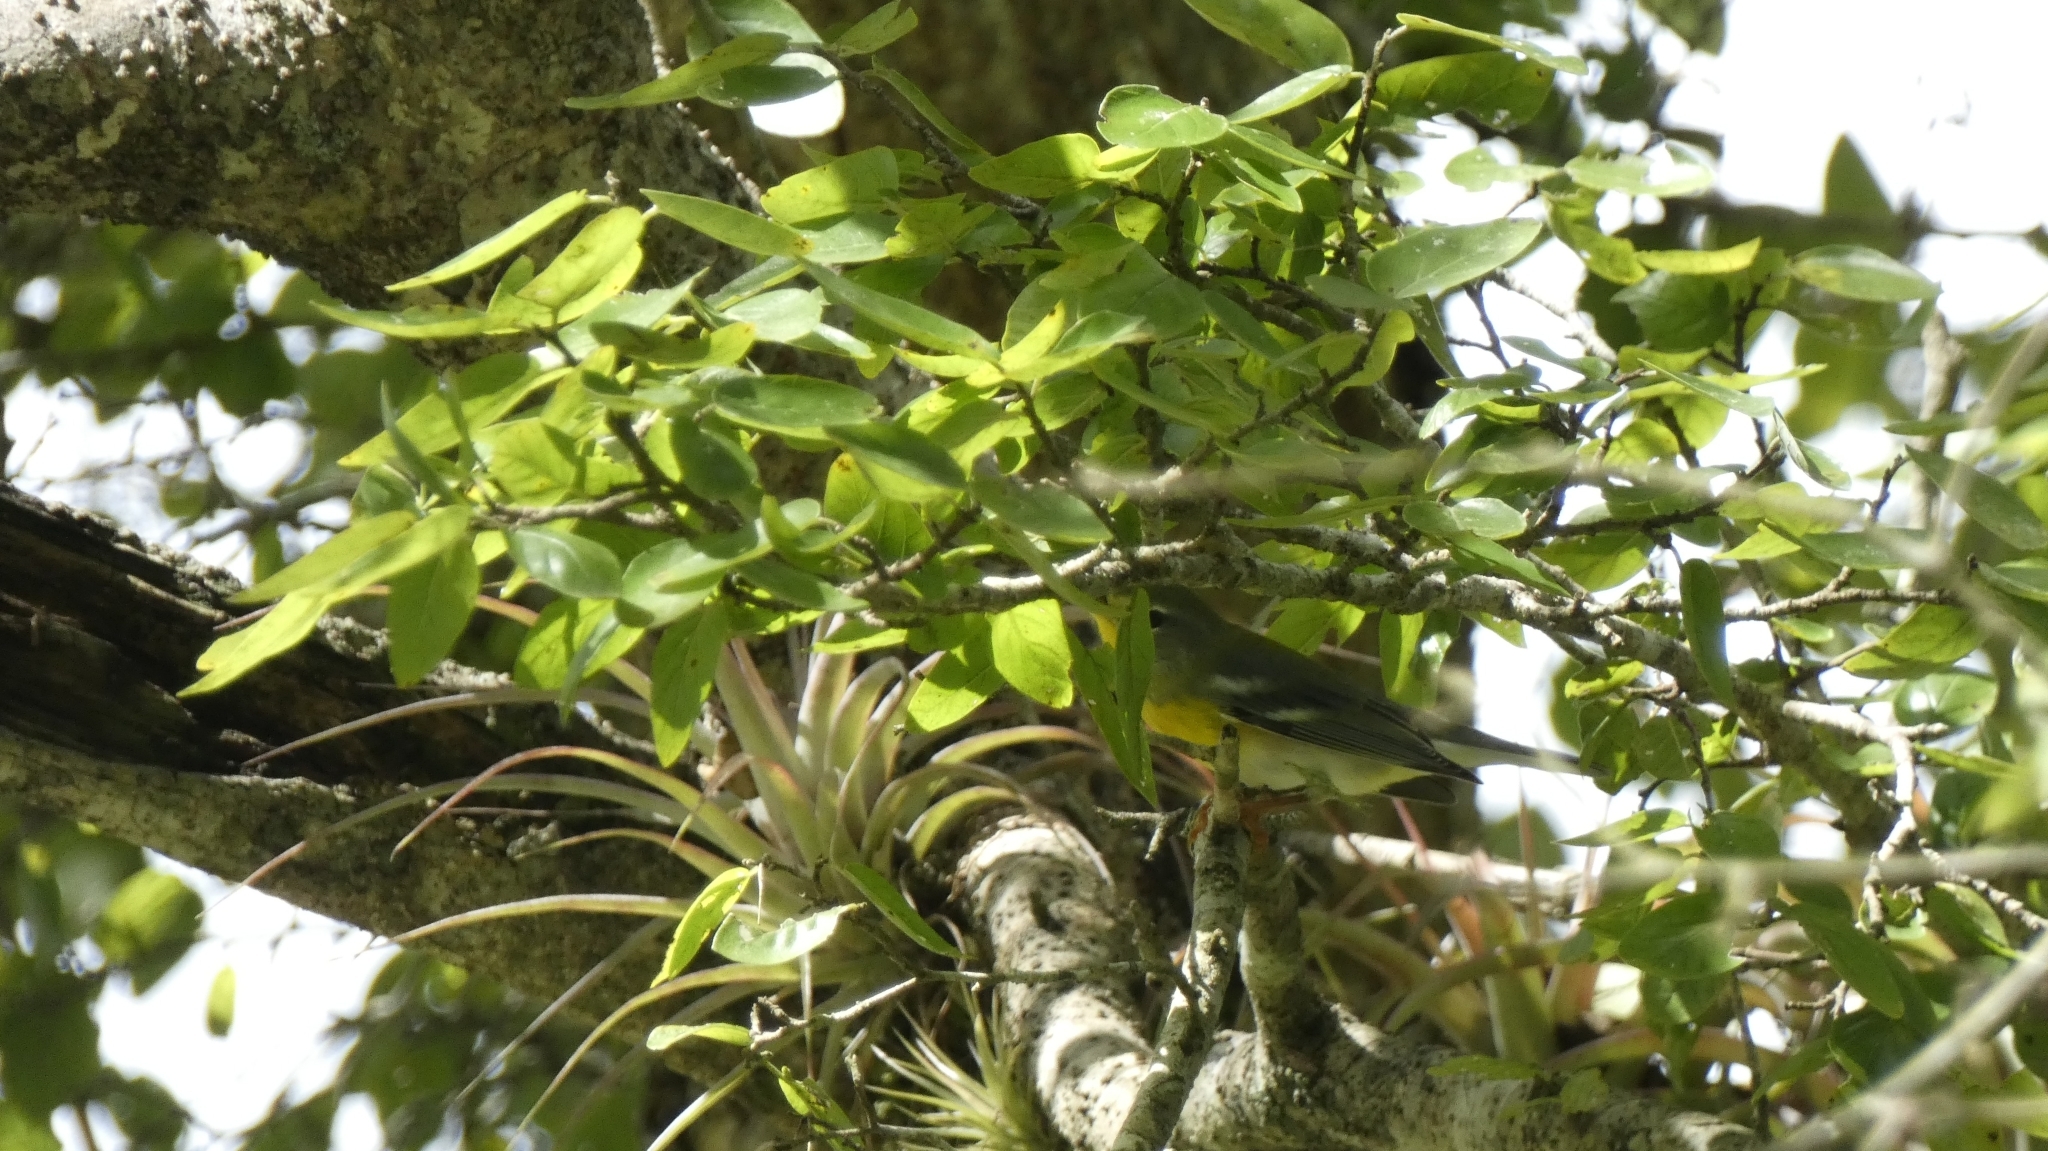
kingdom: Animalia
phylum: Chordata
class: Aves
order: Passeriformes
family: Parulidae
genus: Setophaga
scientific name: Setophaga americana
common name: Northern parula
